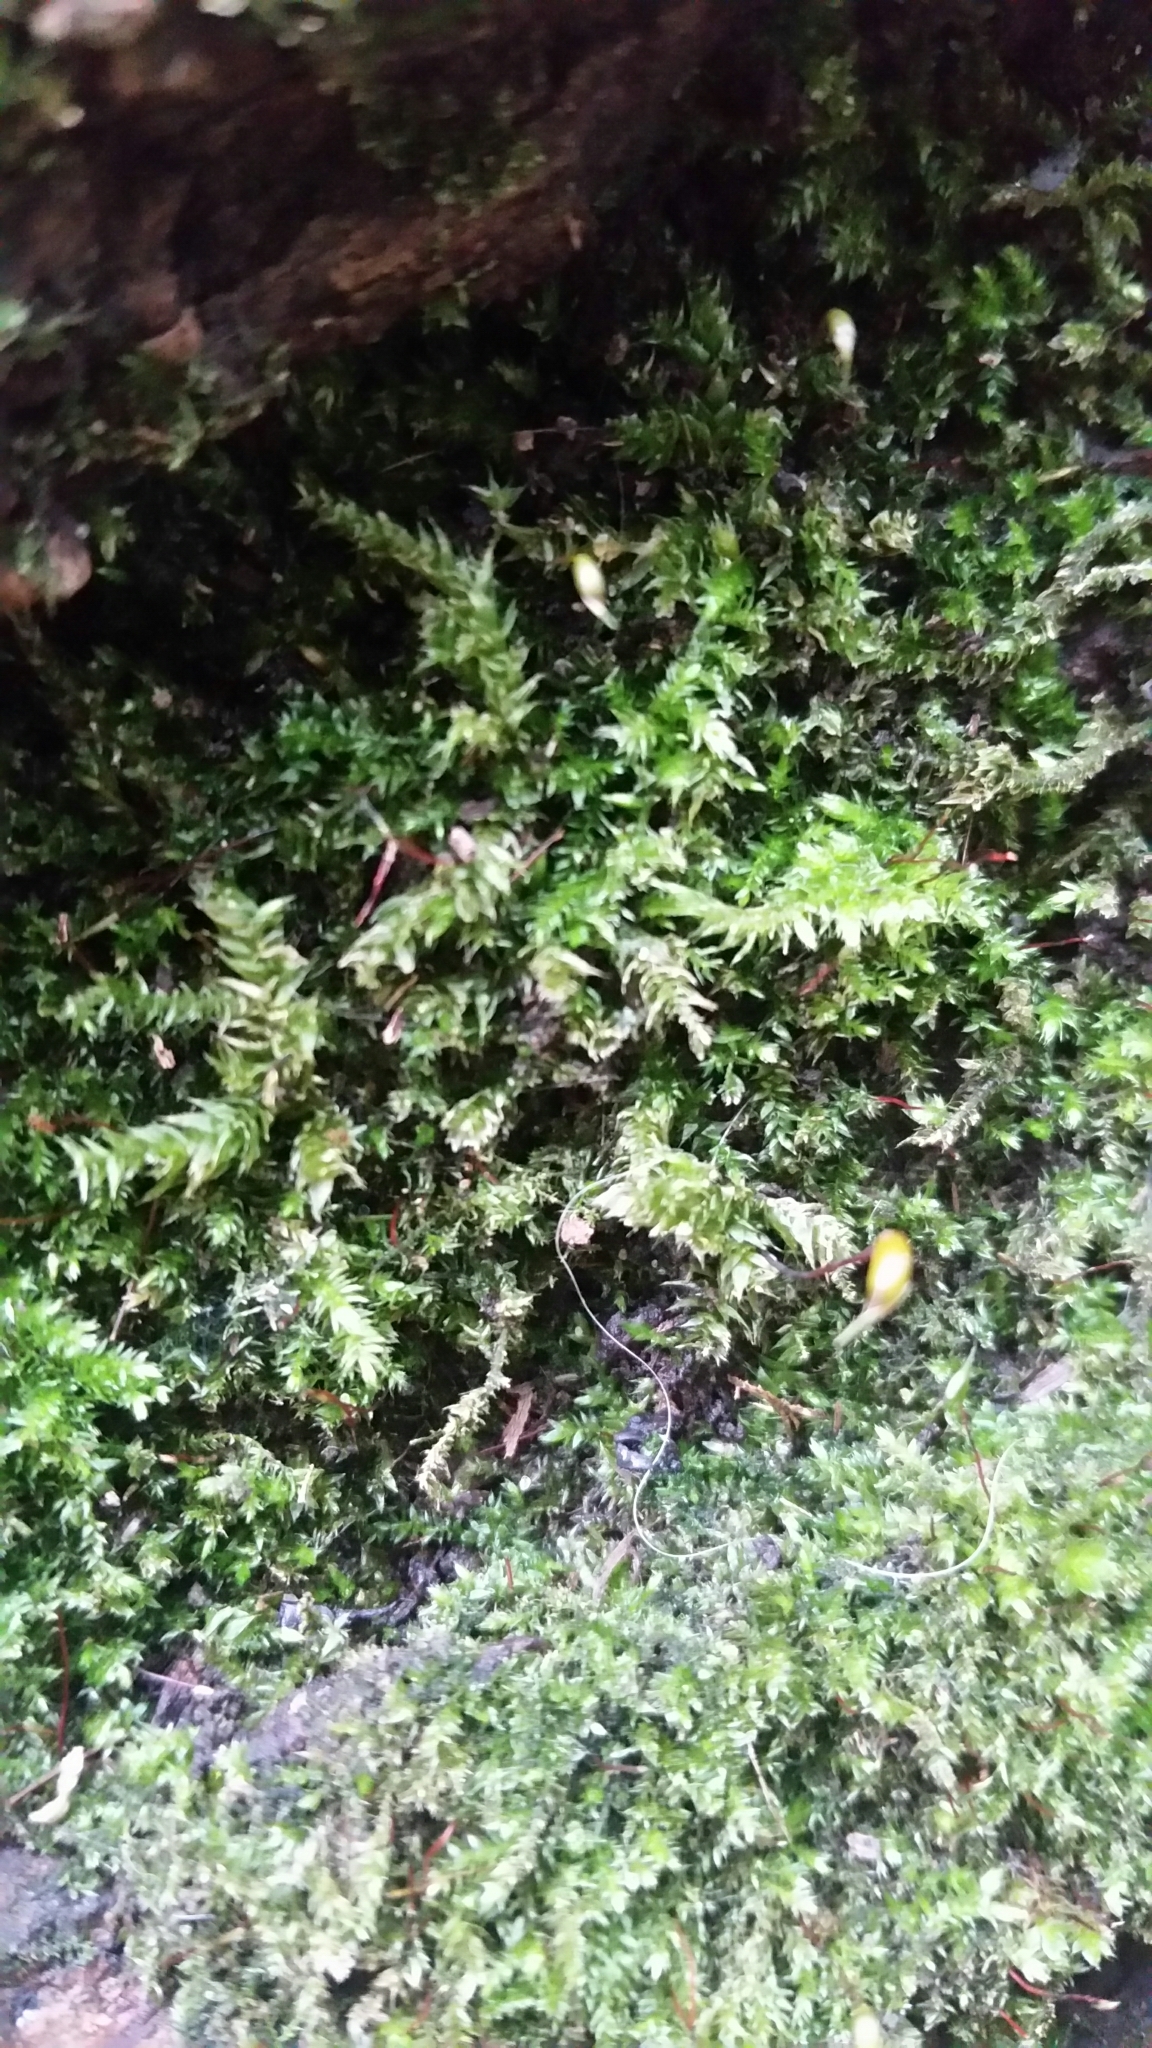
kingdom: Plantae
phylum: Bryophyta
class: Bryopsida
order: Hypnales
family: Brachytheciaceae
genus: Brachythecium
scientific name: Brachythecium rutabulum
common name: Rough-stalked feather-moss
